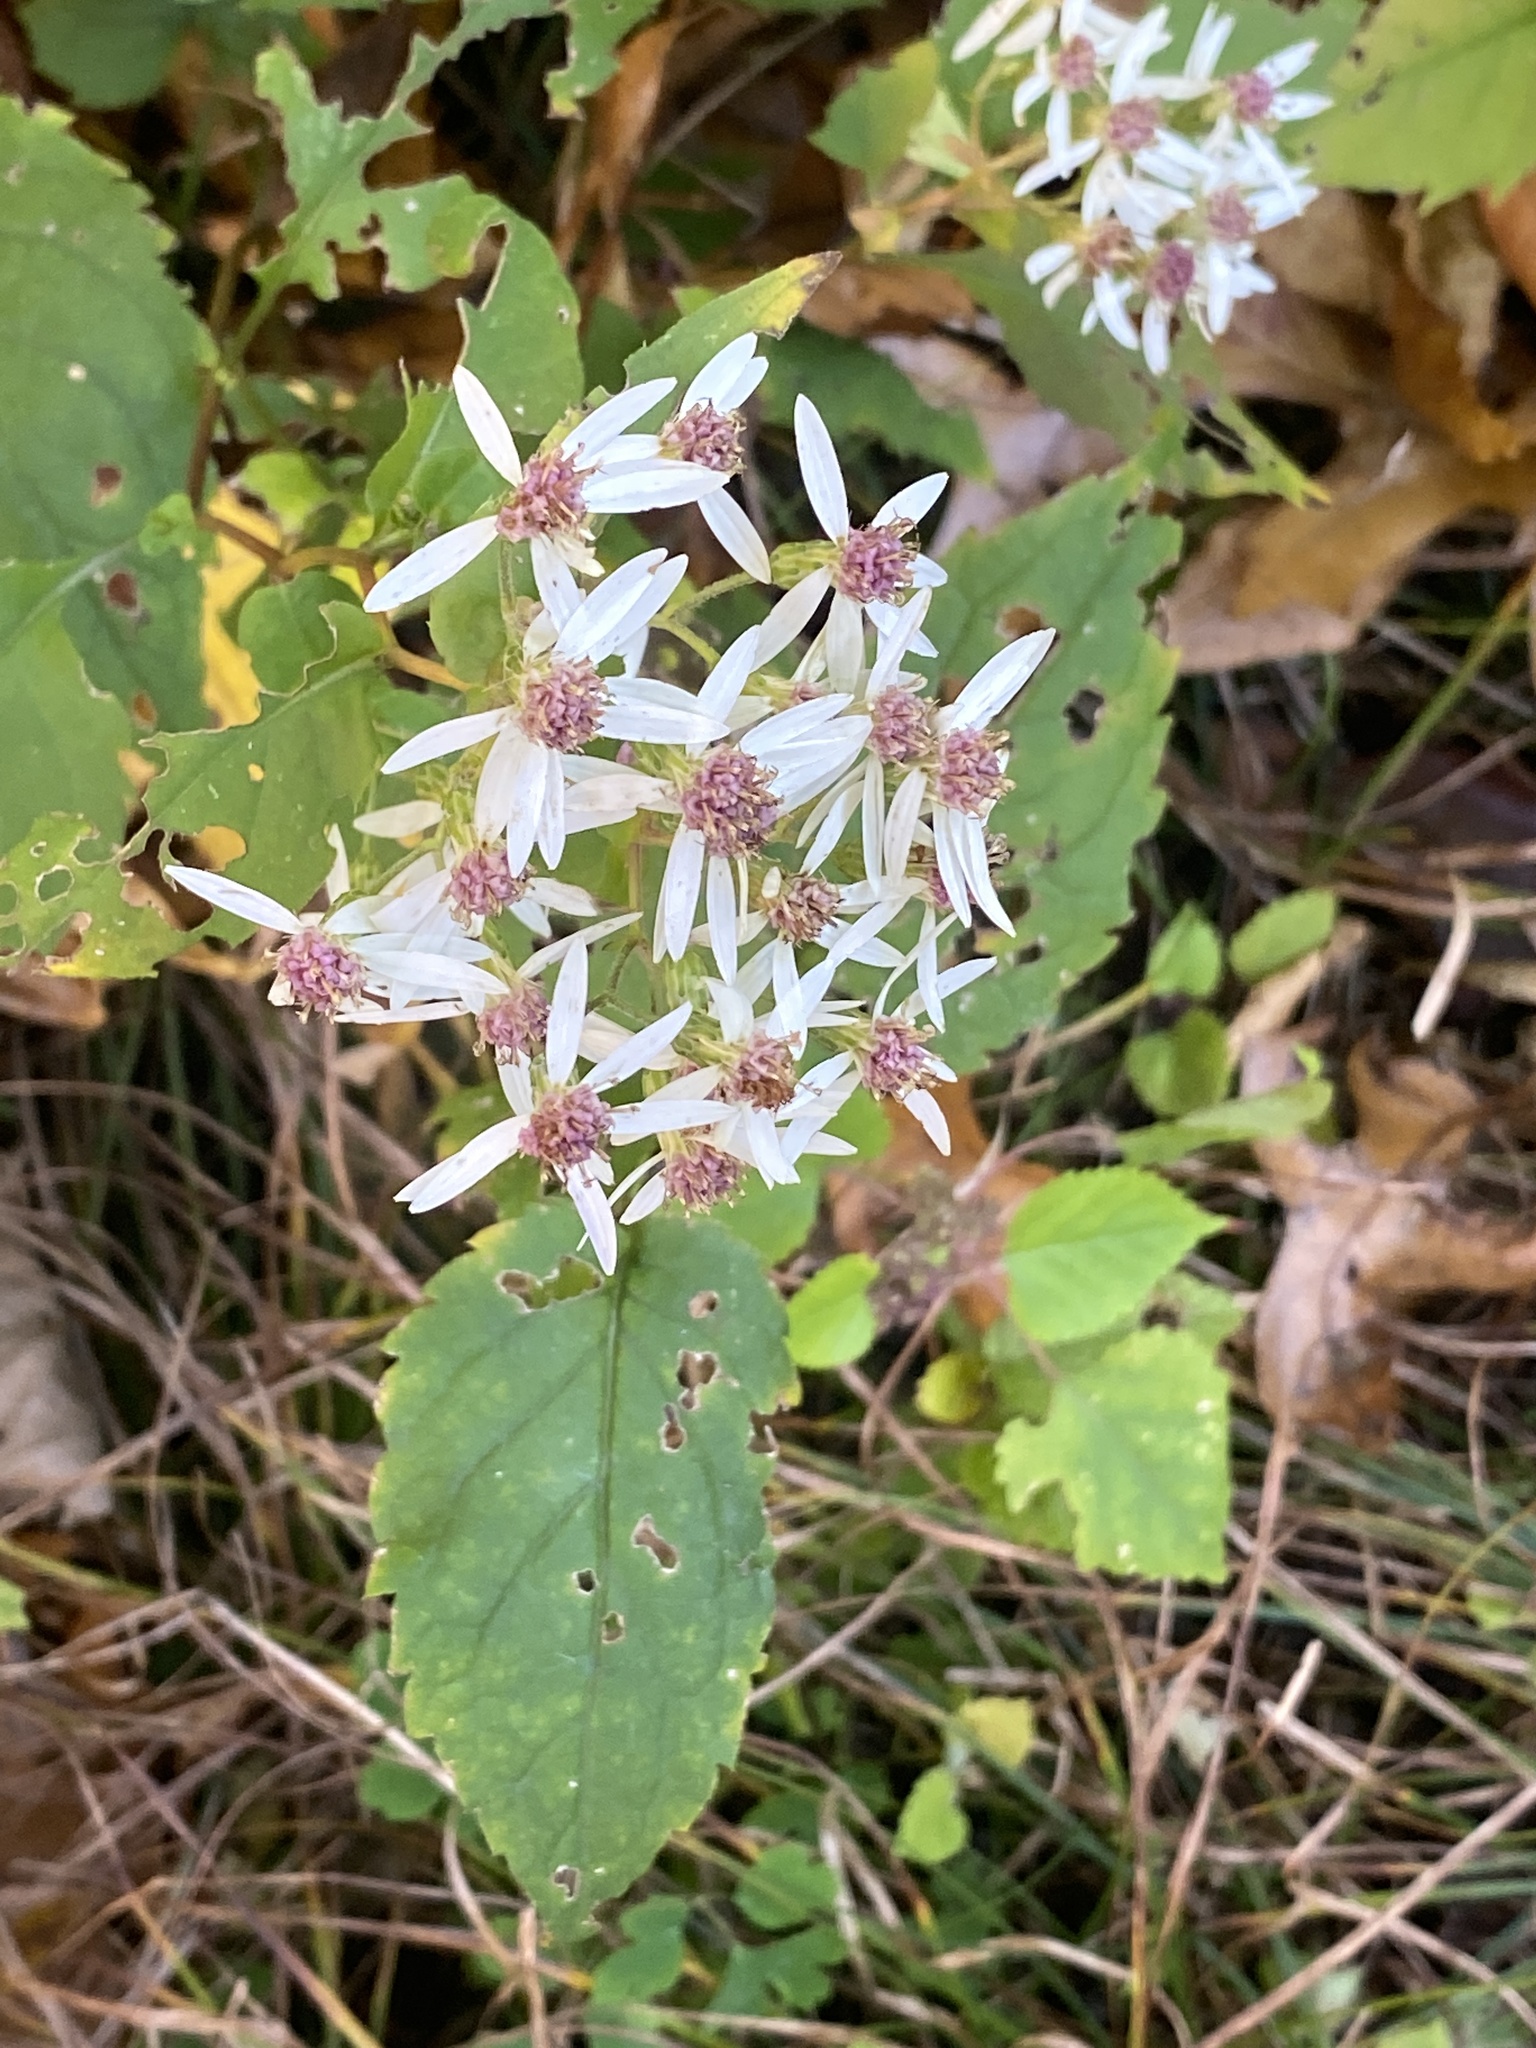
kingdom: Plantae
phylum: Tracheophyta
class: Magnoliopsida
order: Asterales
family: Asteraceae
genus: Eurybia
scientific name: Eurybia divaricata
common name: White wood aster
